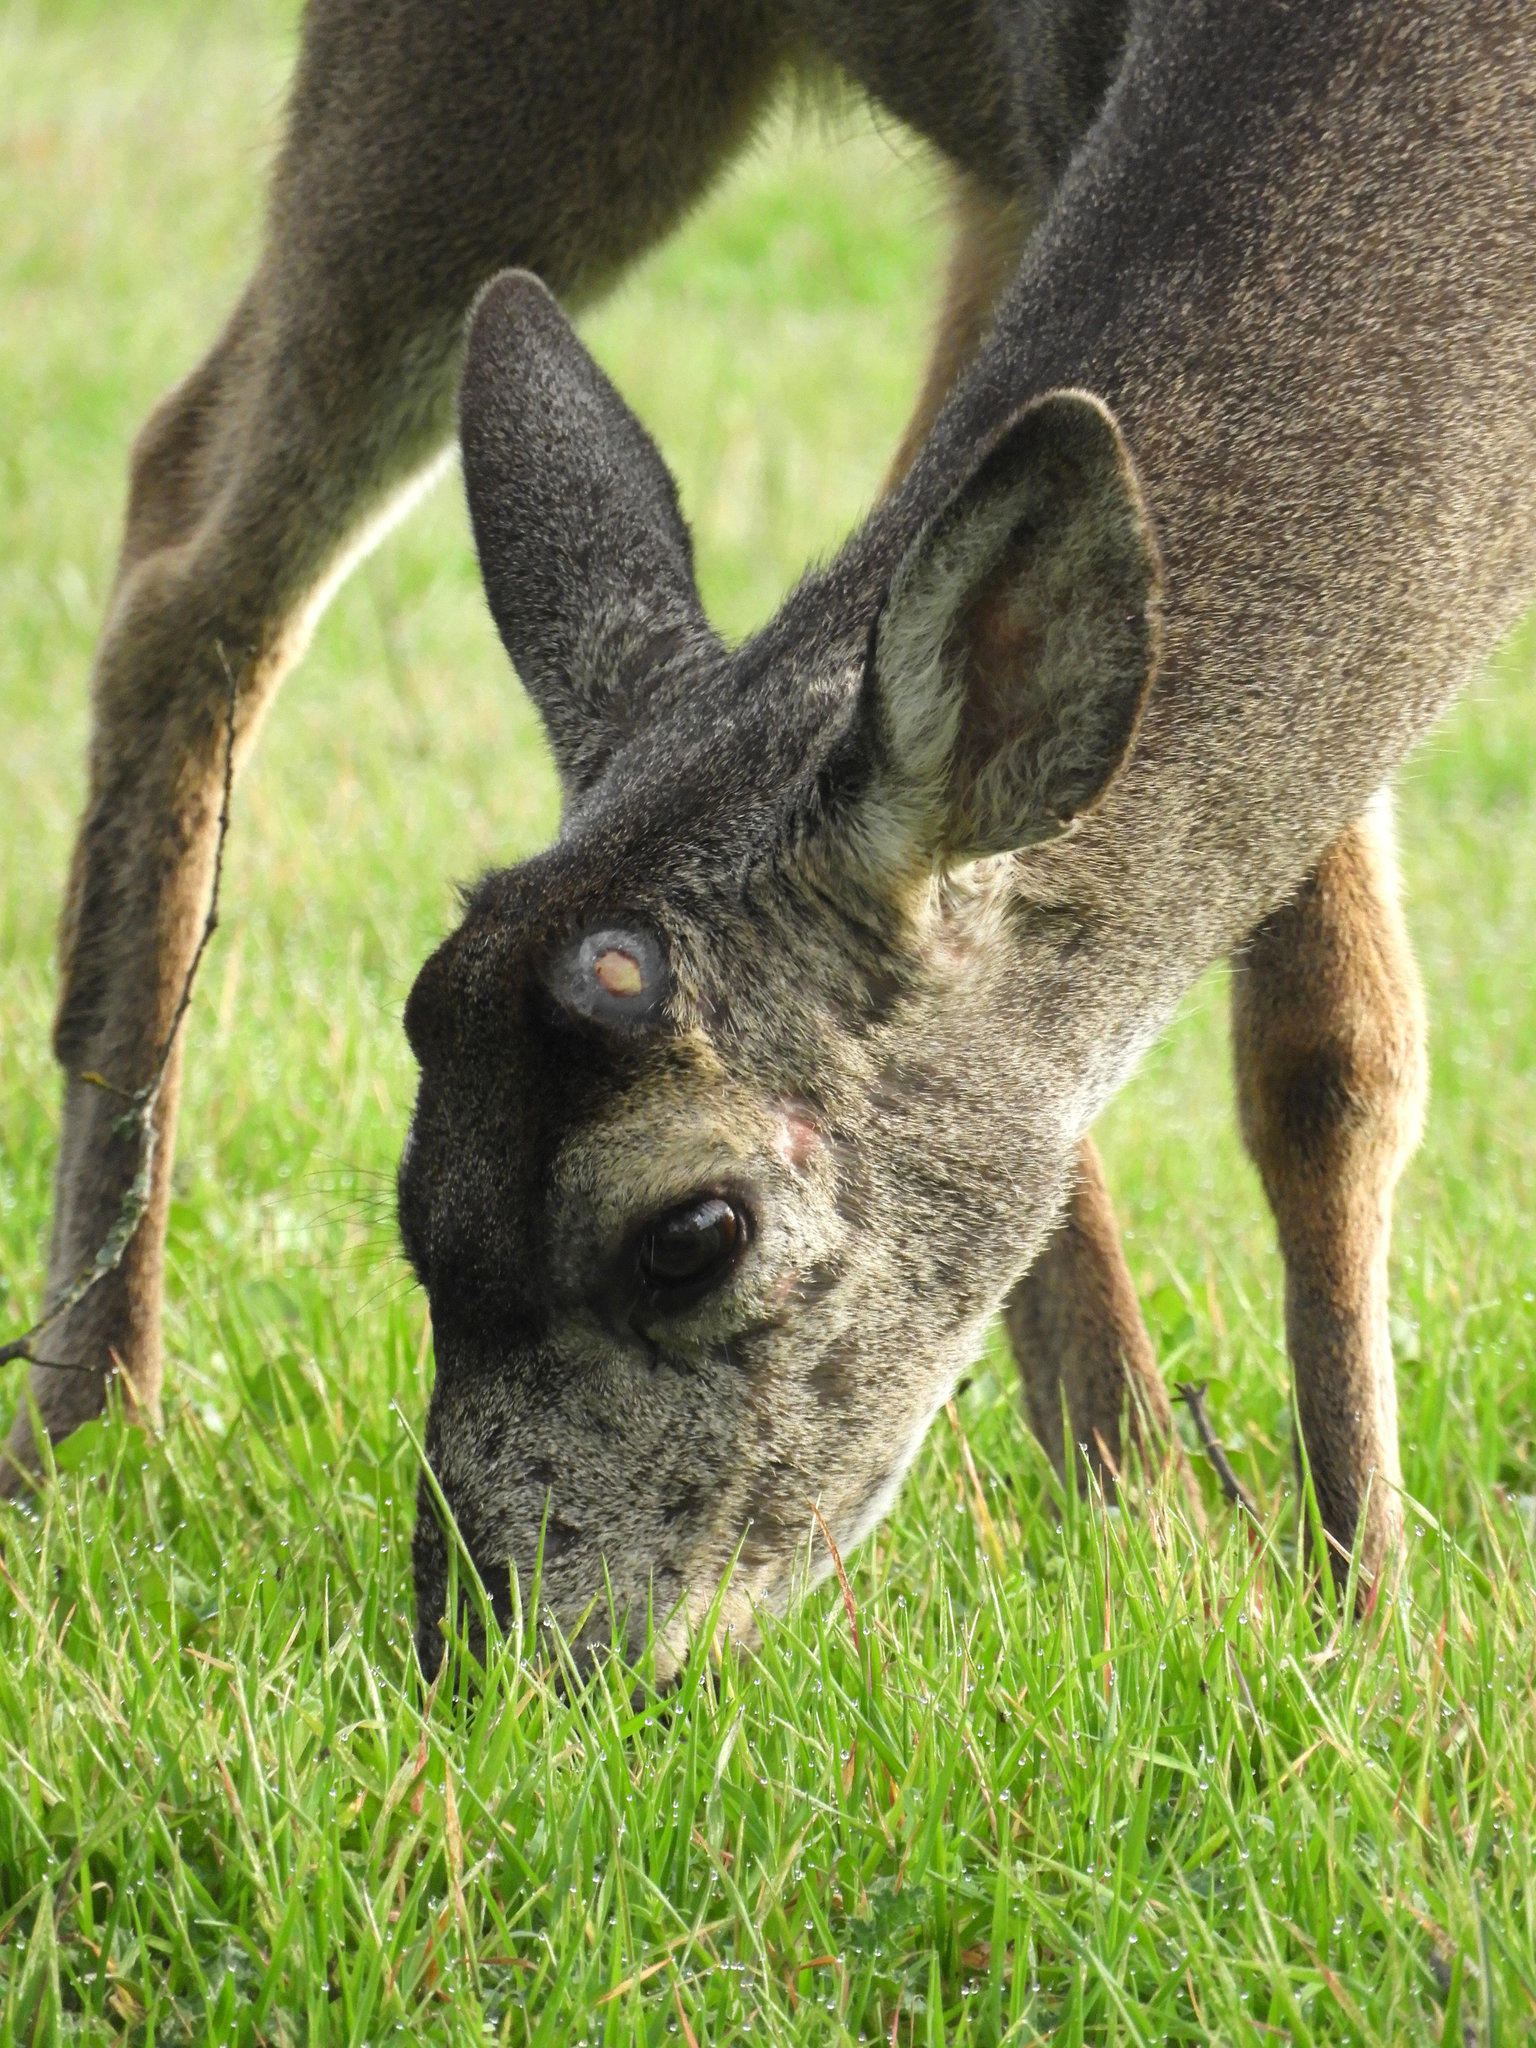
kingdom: Animalia
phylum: Chordata
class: Mammalia
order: Artiodactyla
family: Cervidae
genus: Odocoileus
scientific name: Odocoileus hemionus
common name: Mule deer
